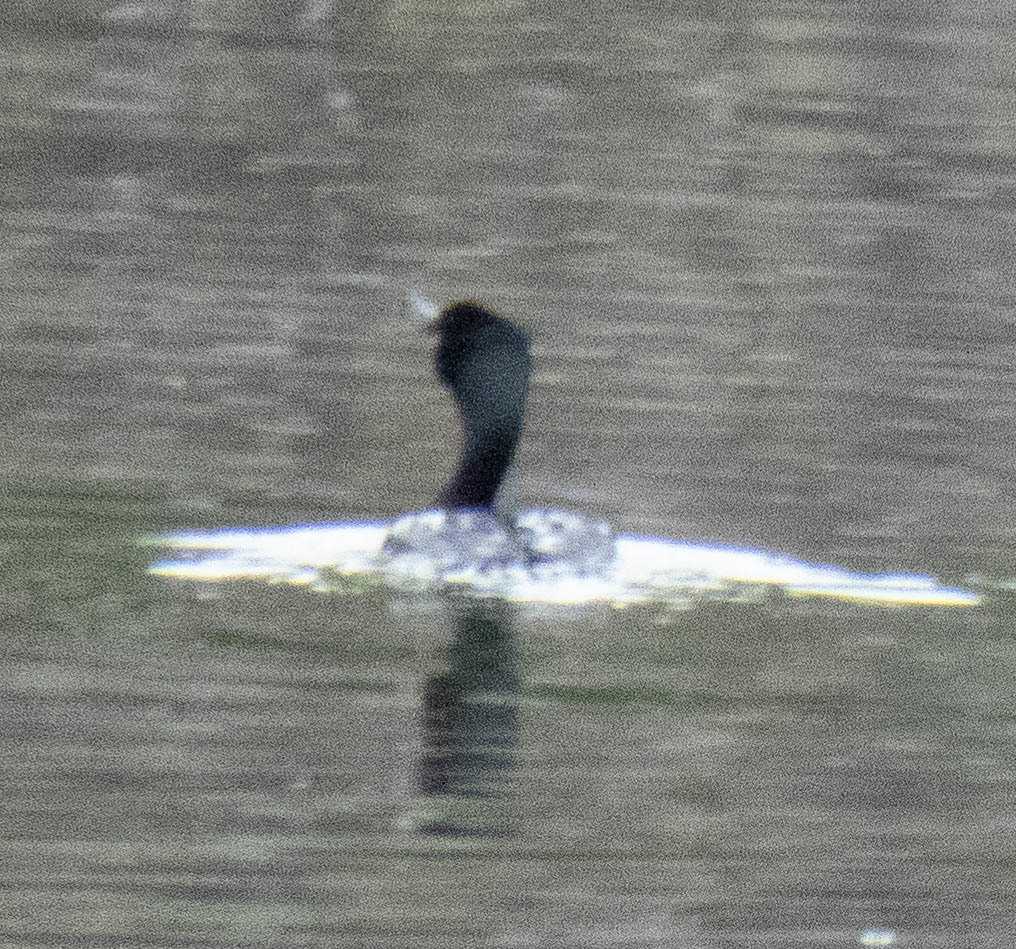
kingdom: Animalia
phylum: Chordata
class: Aves
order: Suliformes
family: Phalacrocoracidae
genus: Phalacrocorax
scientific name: Phalacrocorax auritus
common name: Double-crested cormorant
